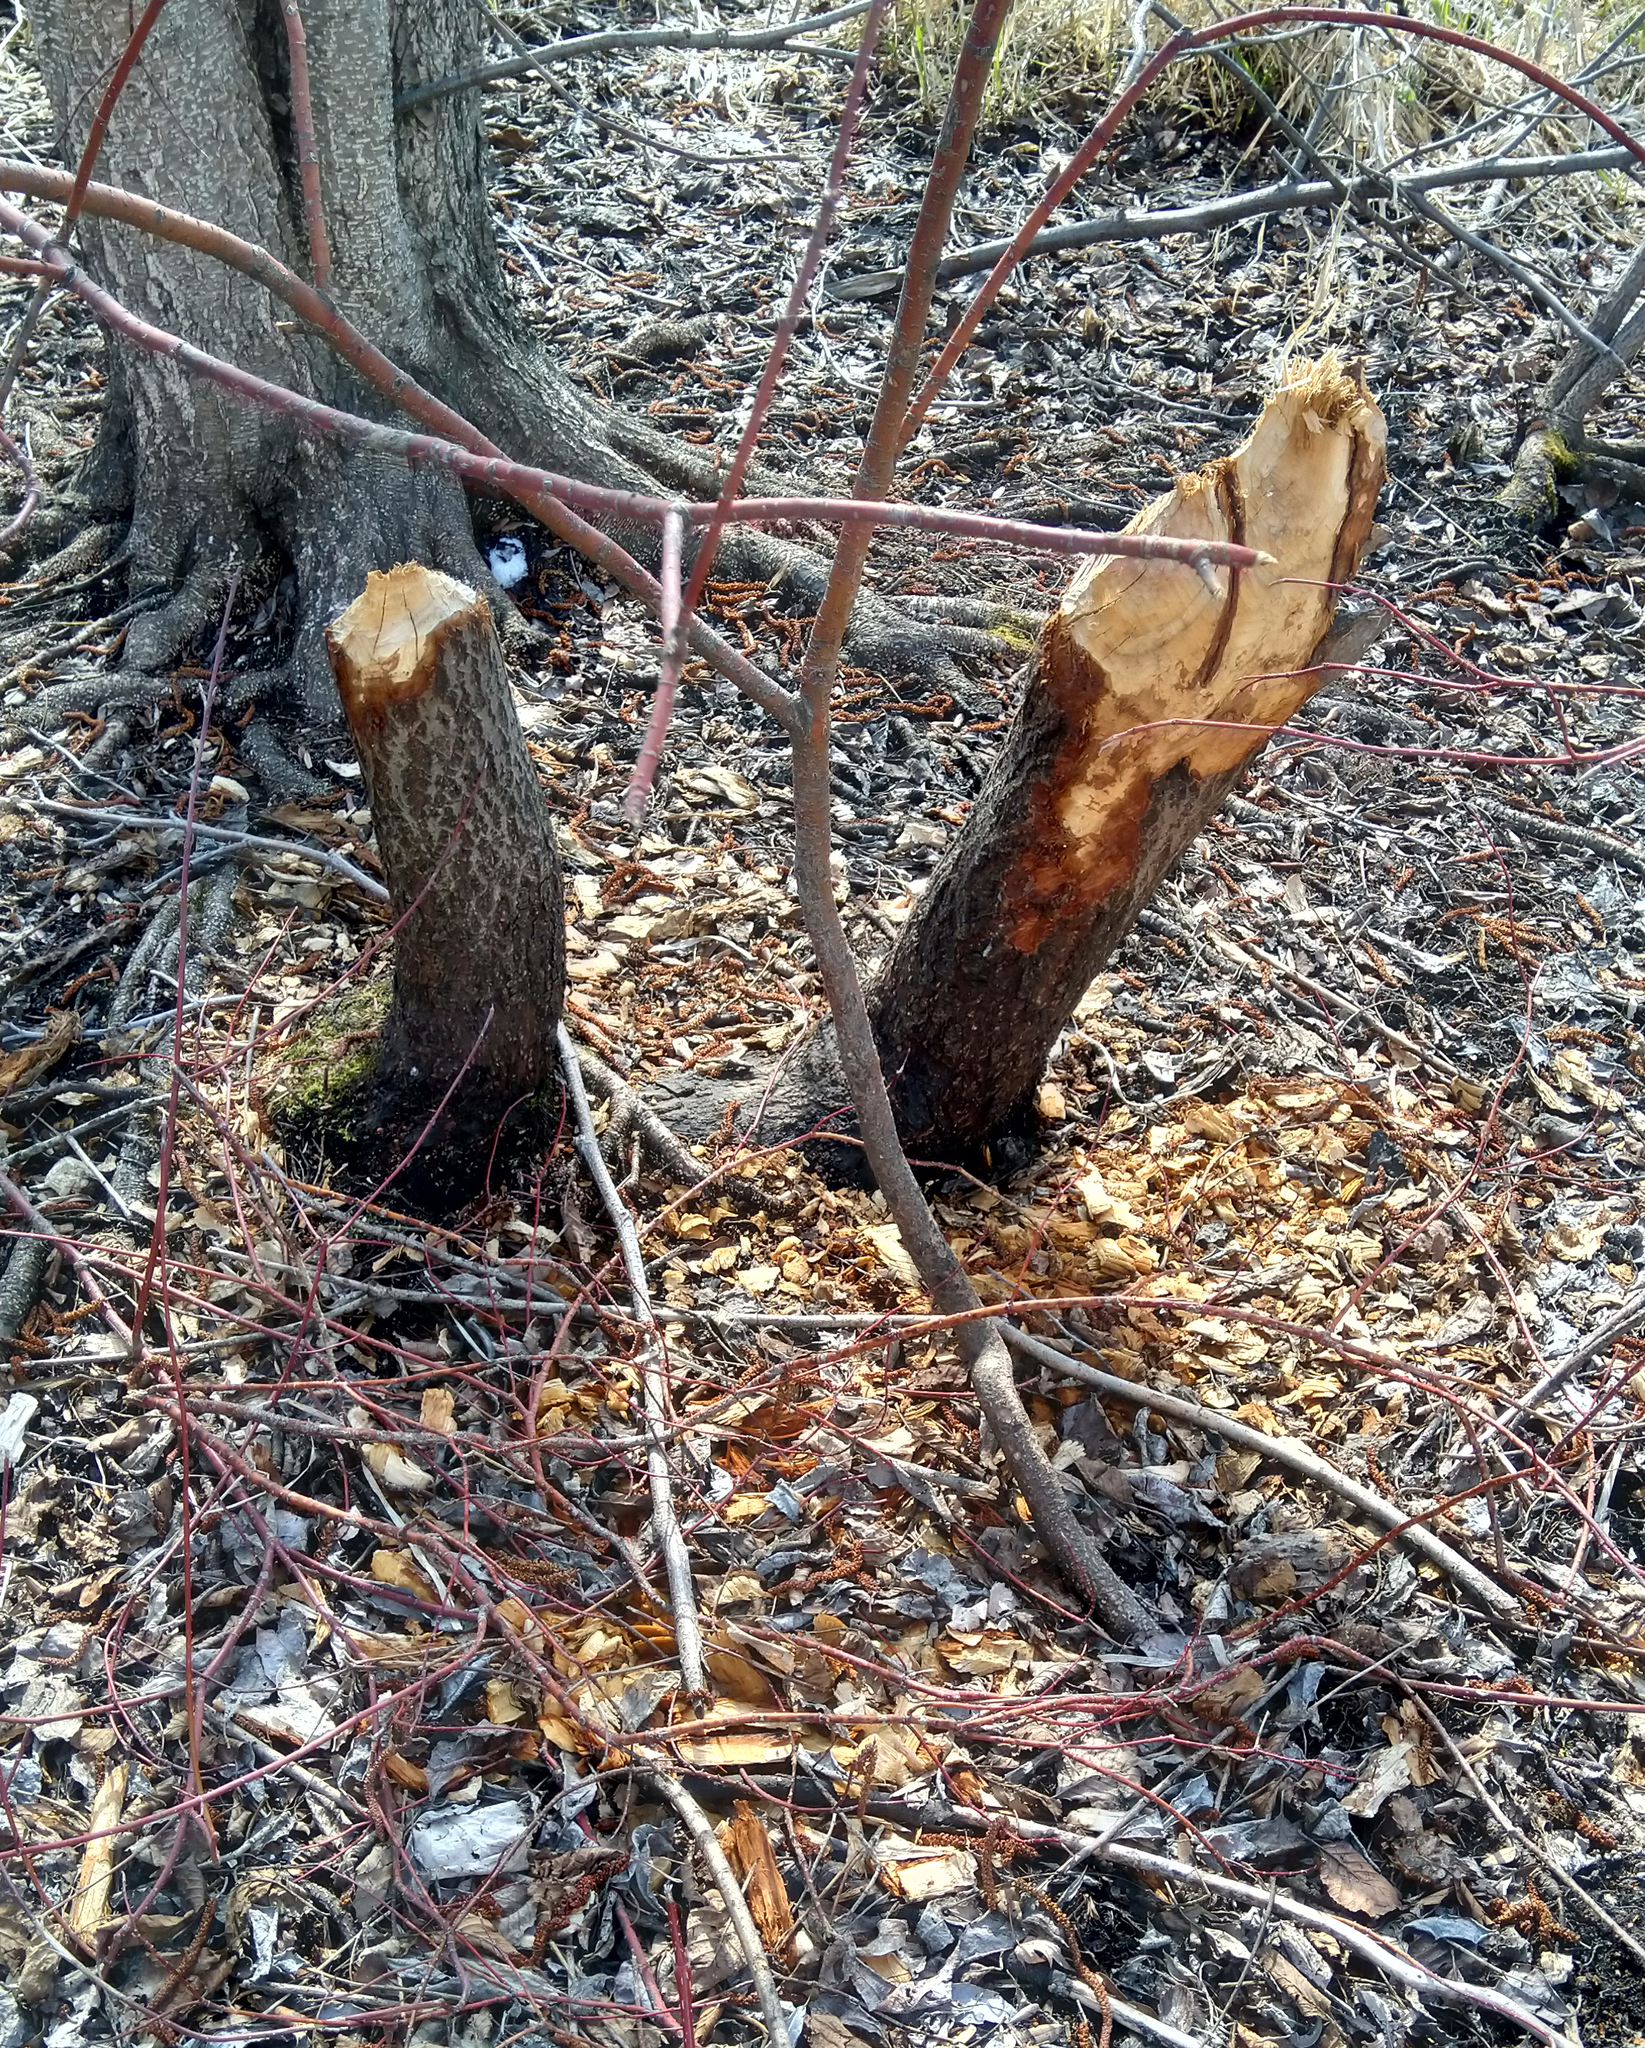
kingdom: Animalia
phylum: Chordata
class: Mammalia
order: Rodentia
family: Castoridae
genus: Castor
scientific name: Castor canadensis
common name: American beaver
